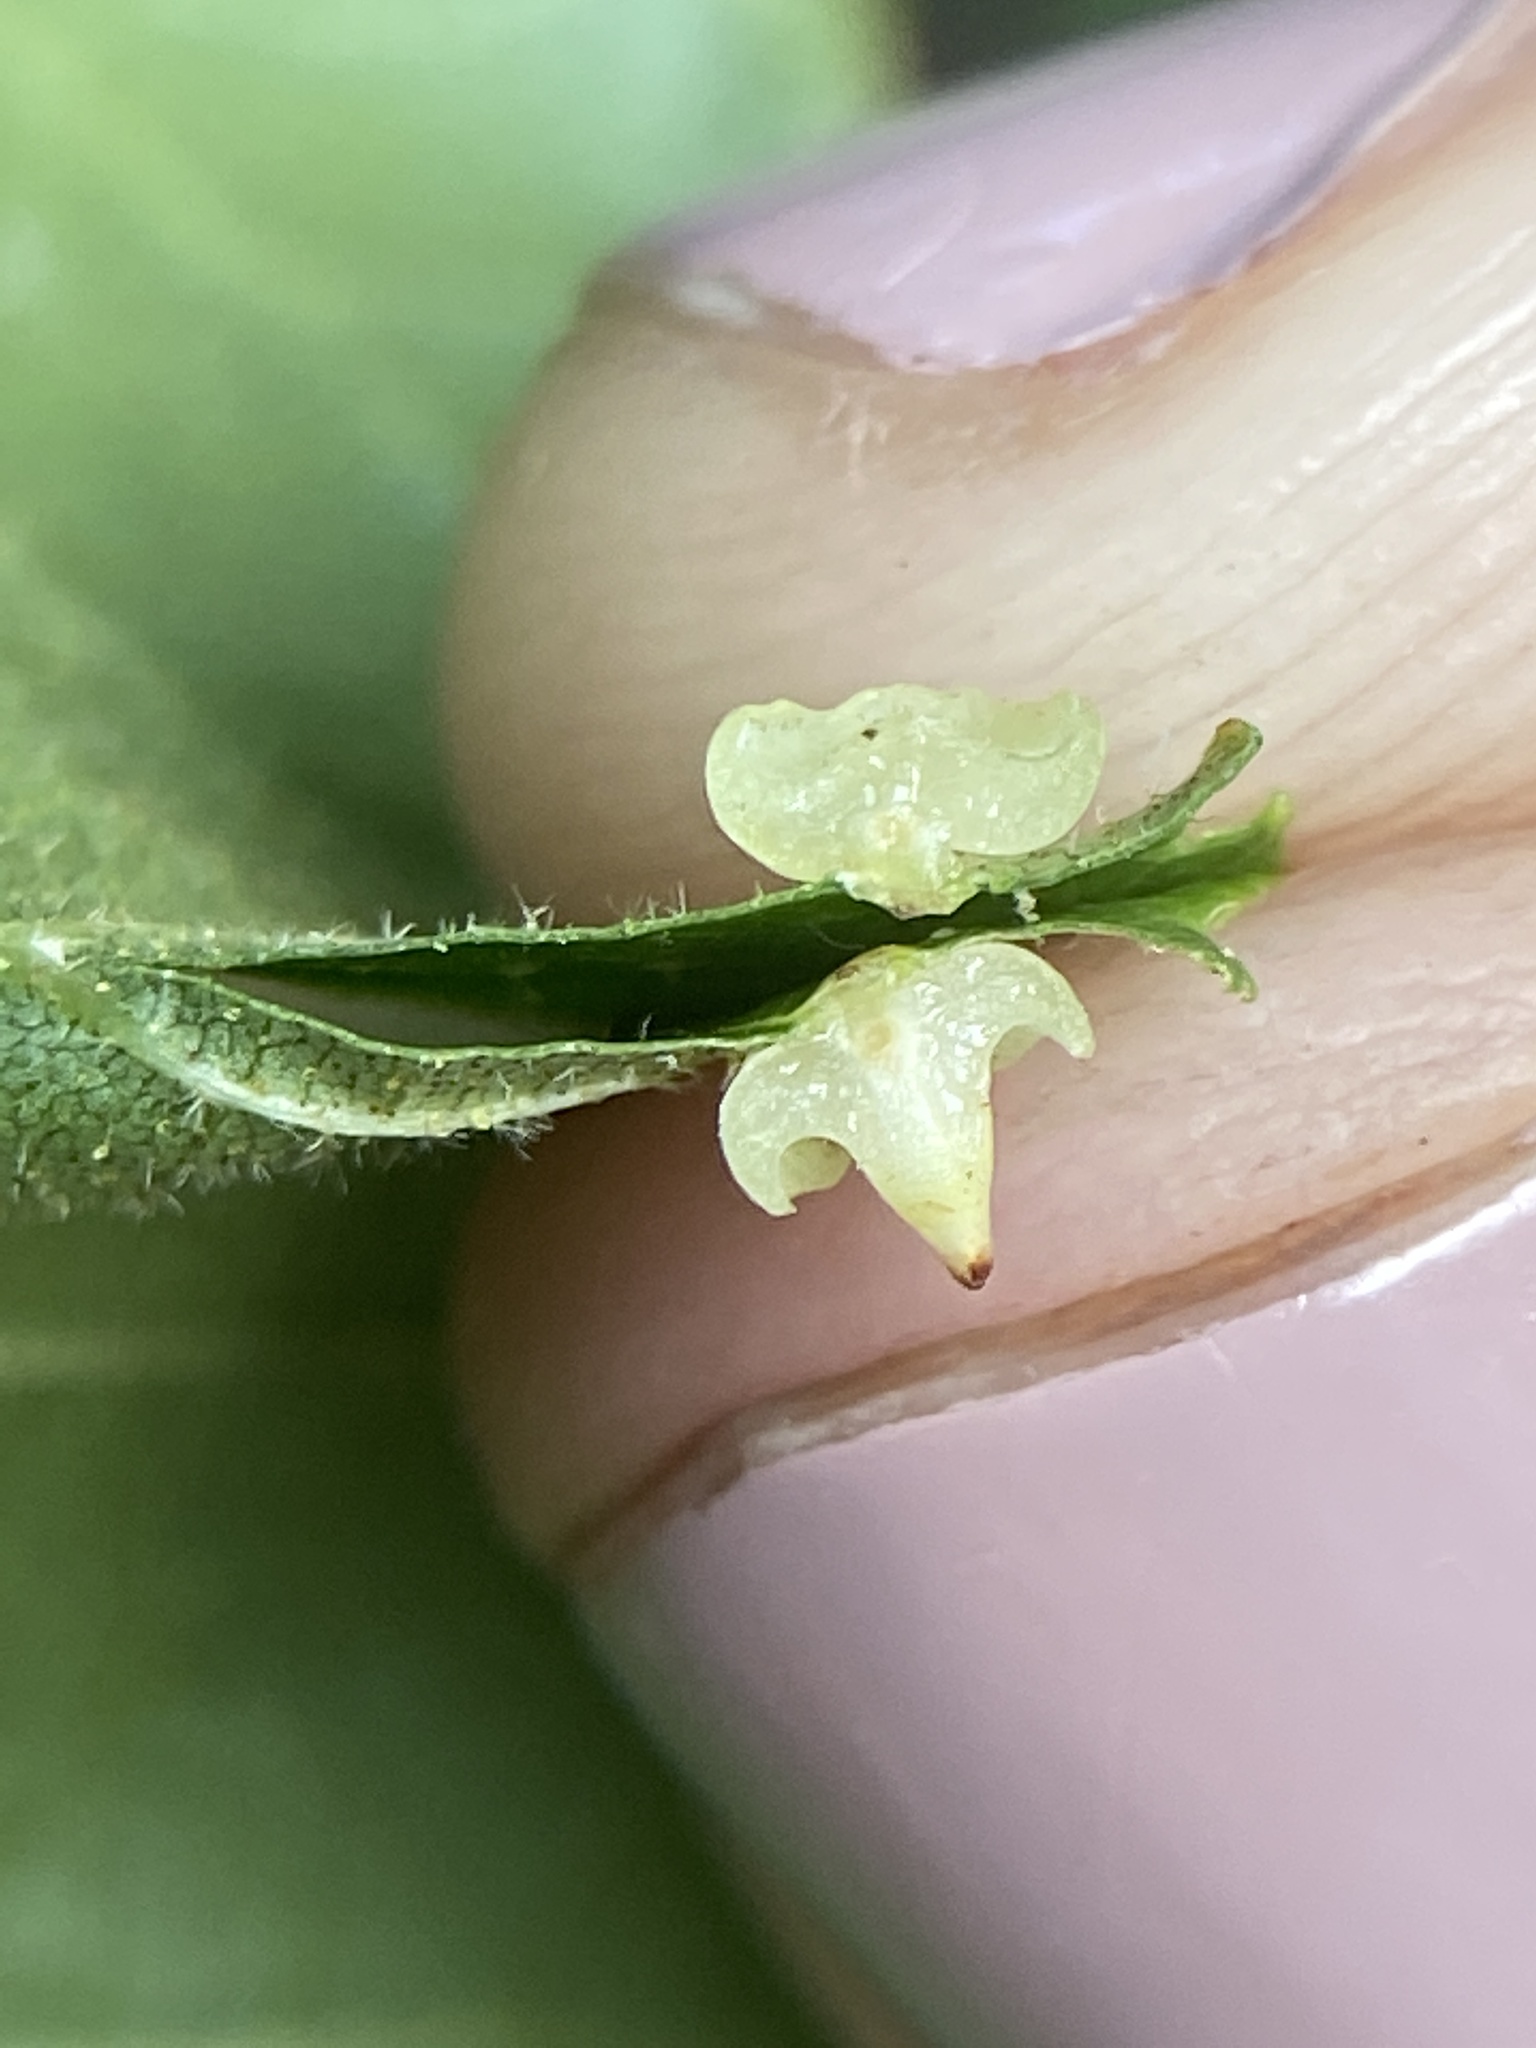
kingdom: Animalia
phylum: Arthropoda
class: Insecta
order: Diptera
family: Cecidomyiidae
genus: Caryomyia
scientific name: Caryomyia arcuata
